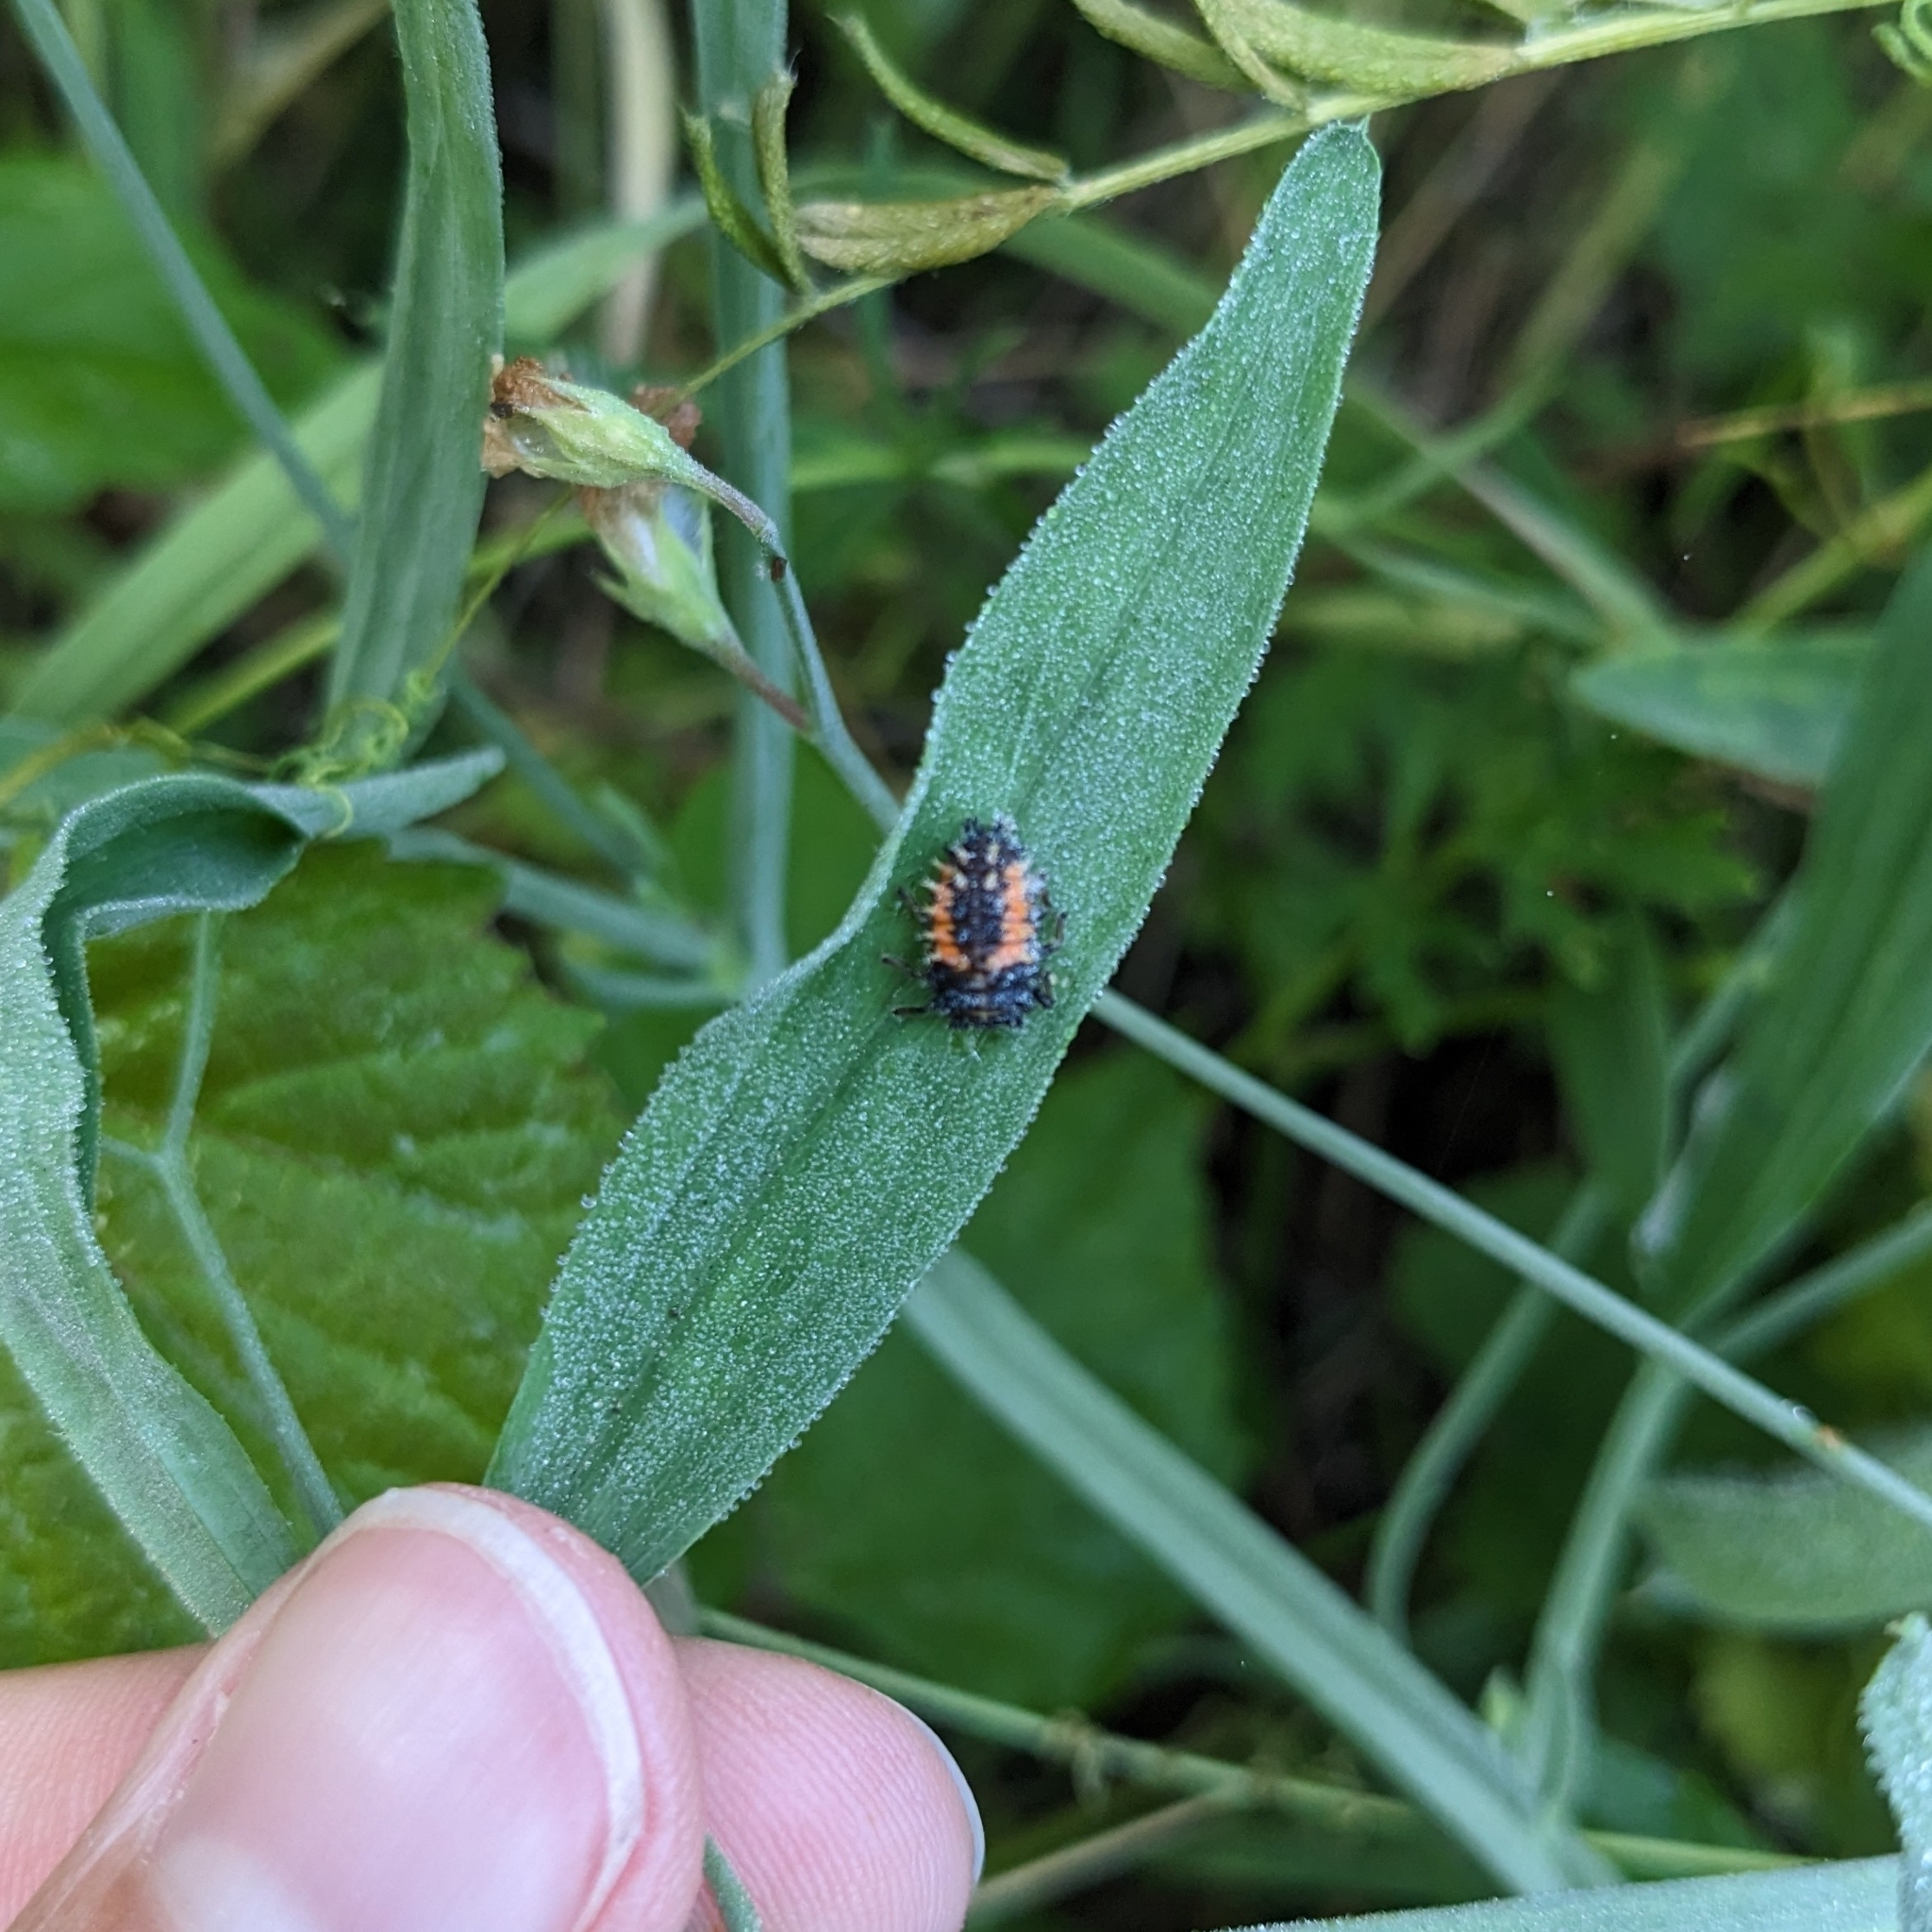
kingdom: Animalia
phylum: Arthropoda
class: Insecta
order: Coleoptera
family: Coccinellidae
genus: Harmonia
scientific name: Harmonia axyridis
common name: Harlequin ladybird
